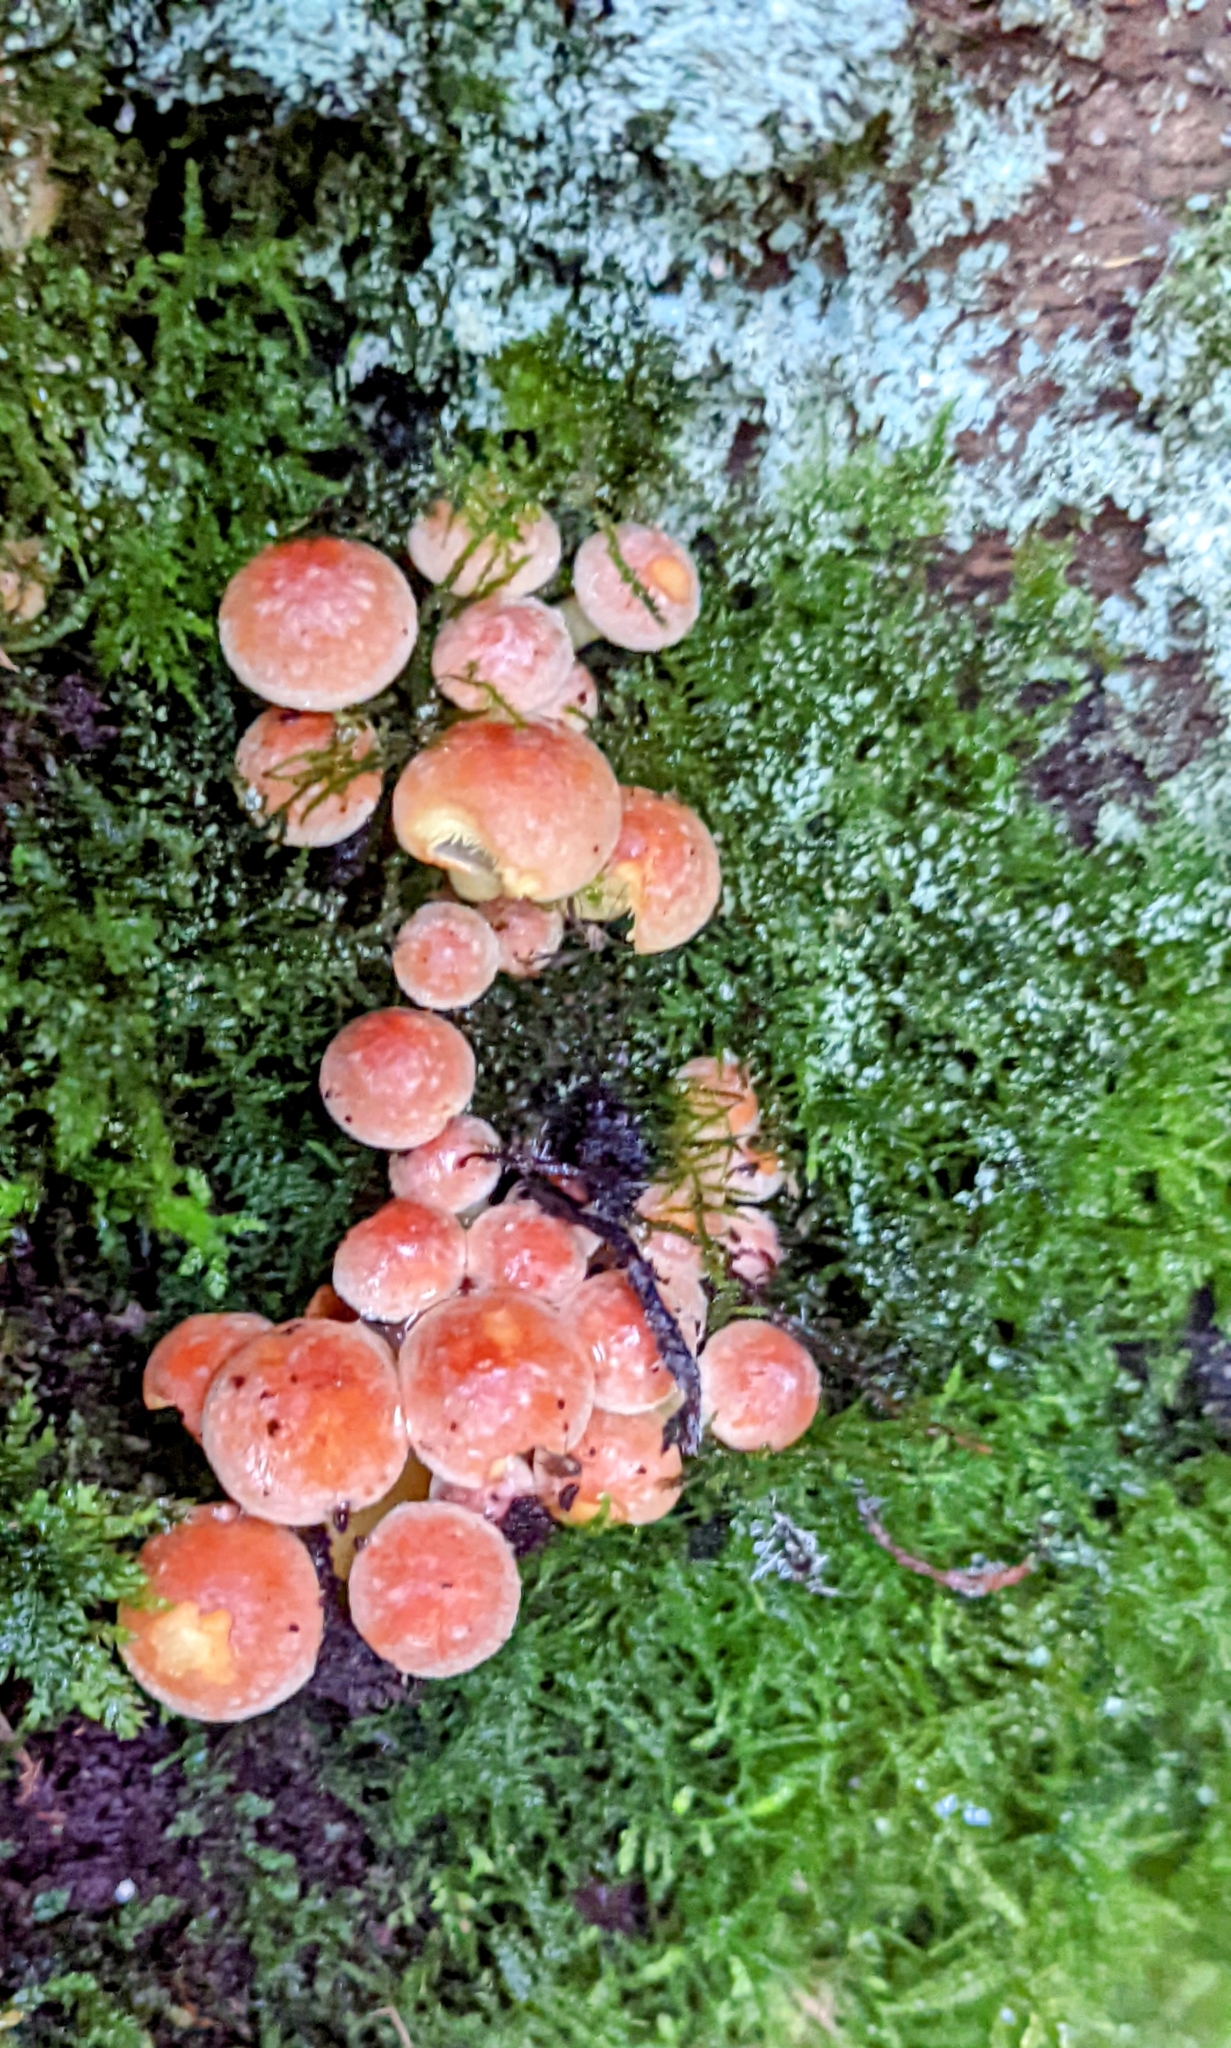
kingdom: Fungi
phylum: Basidiomycota
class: Agaricomycetes
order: Agaricales
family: Strophariaceae
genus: Hypholoma
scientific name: Hypholoma lateritium
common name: Brick caps
